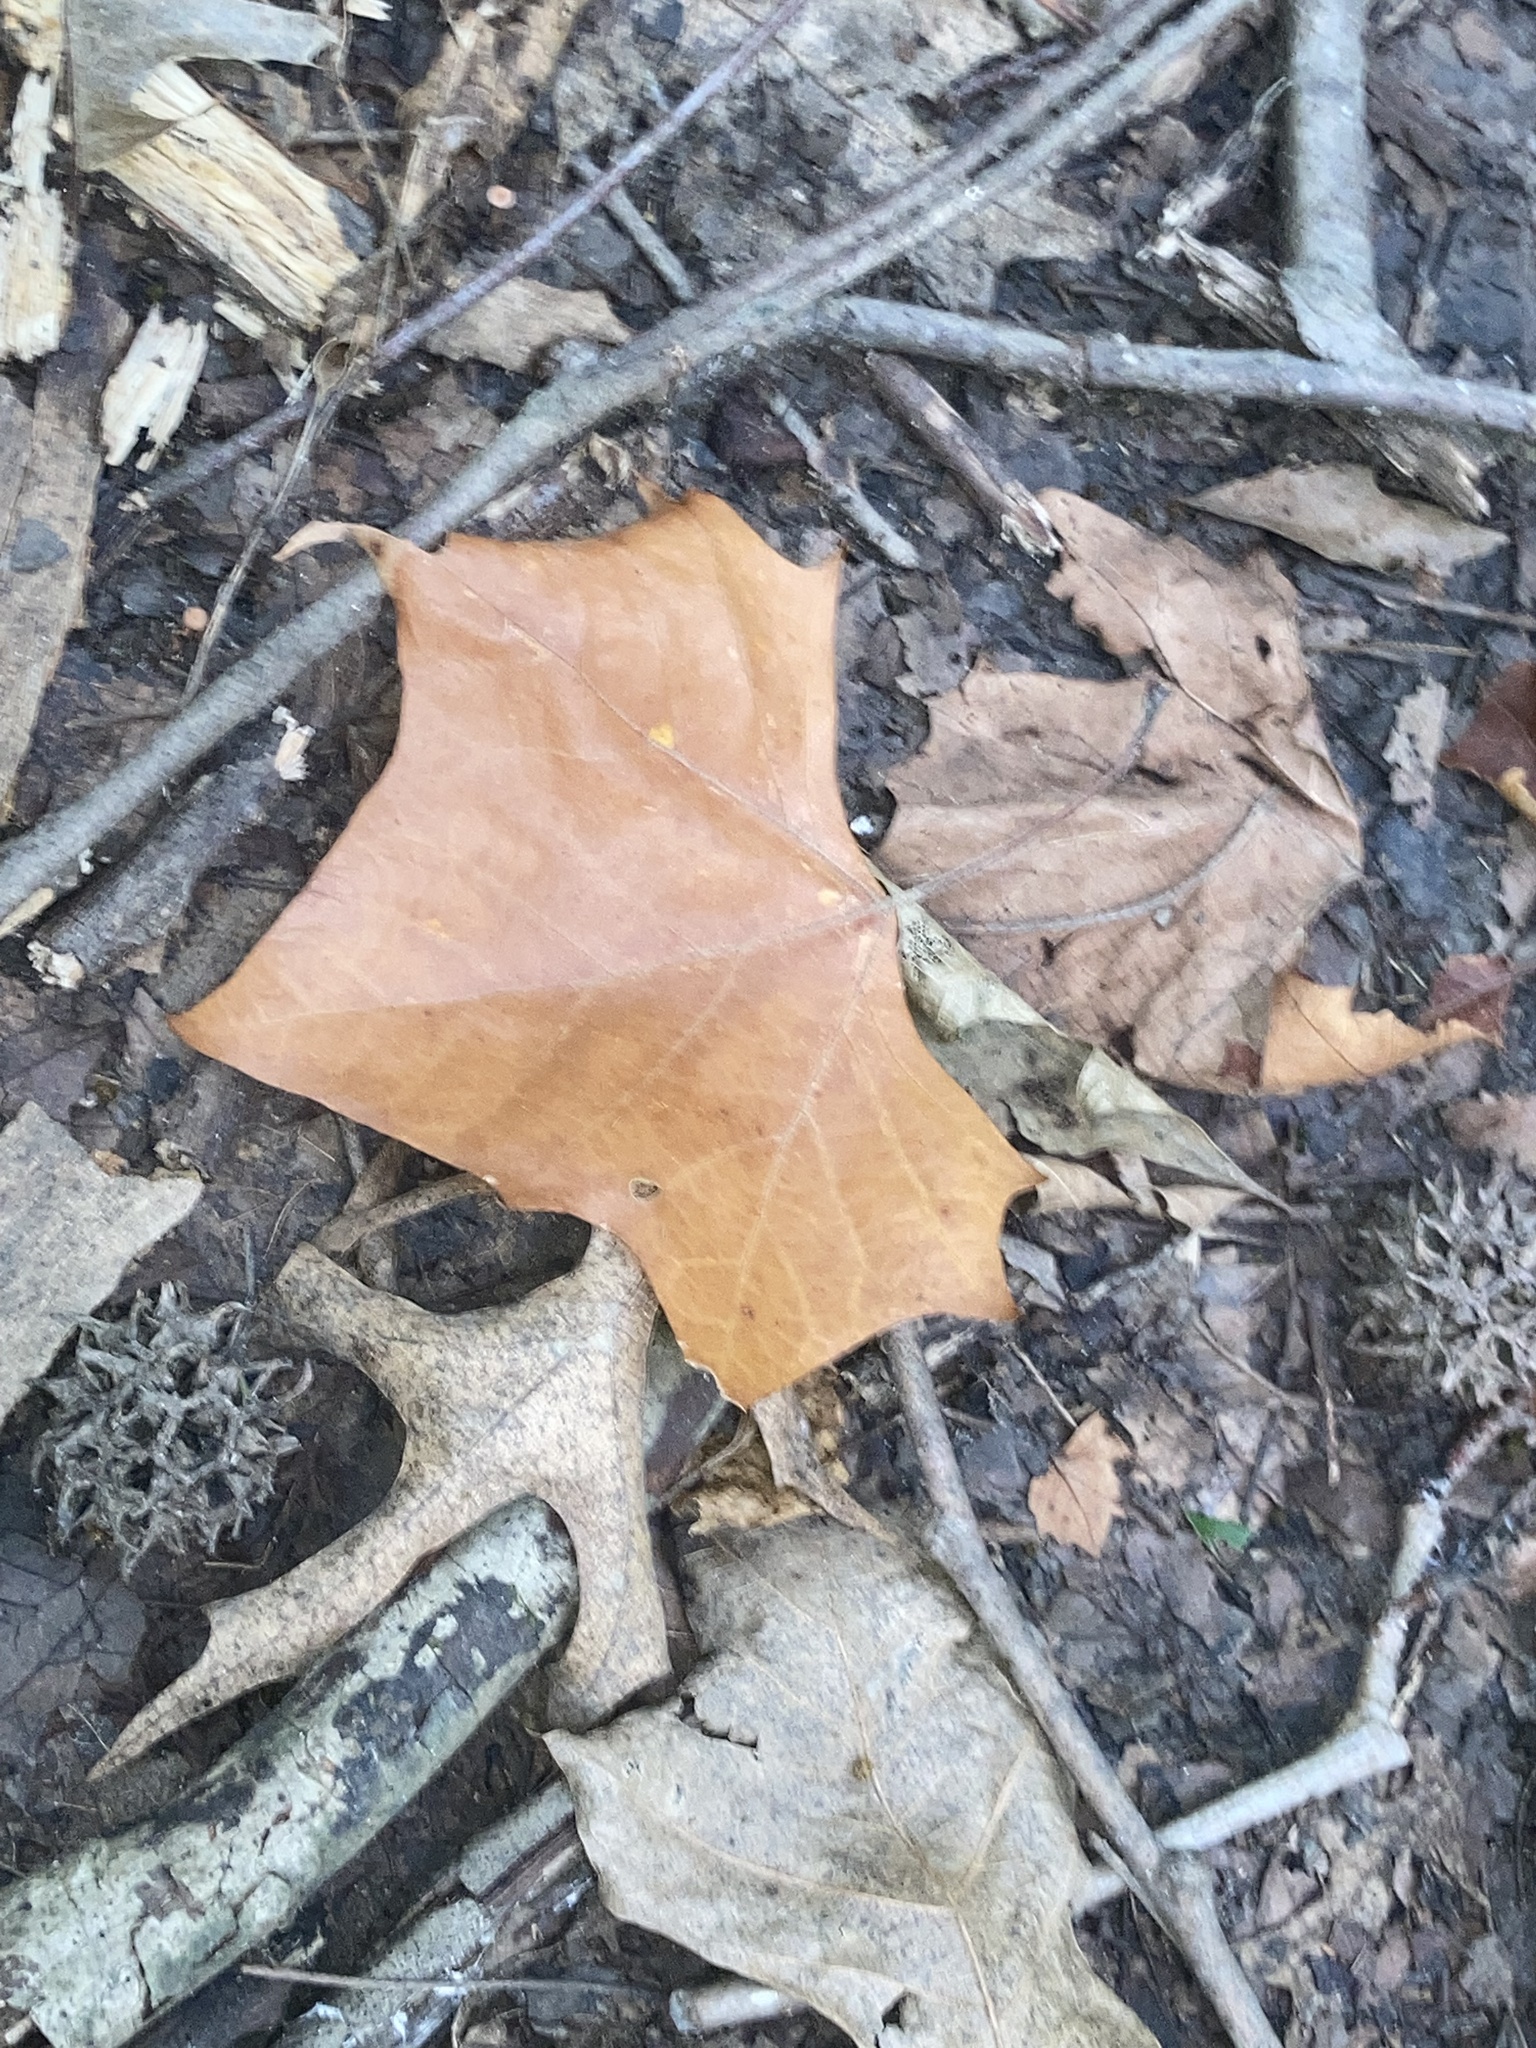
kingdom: Plantae
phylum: Tracheophyta
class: Magnoliopsida
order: Proteales
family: Platanaceae
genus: Platanus
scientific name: Platanus occidentalis
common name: American sycamore
